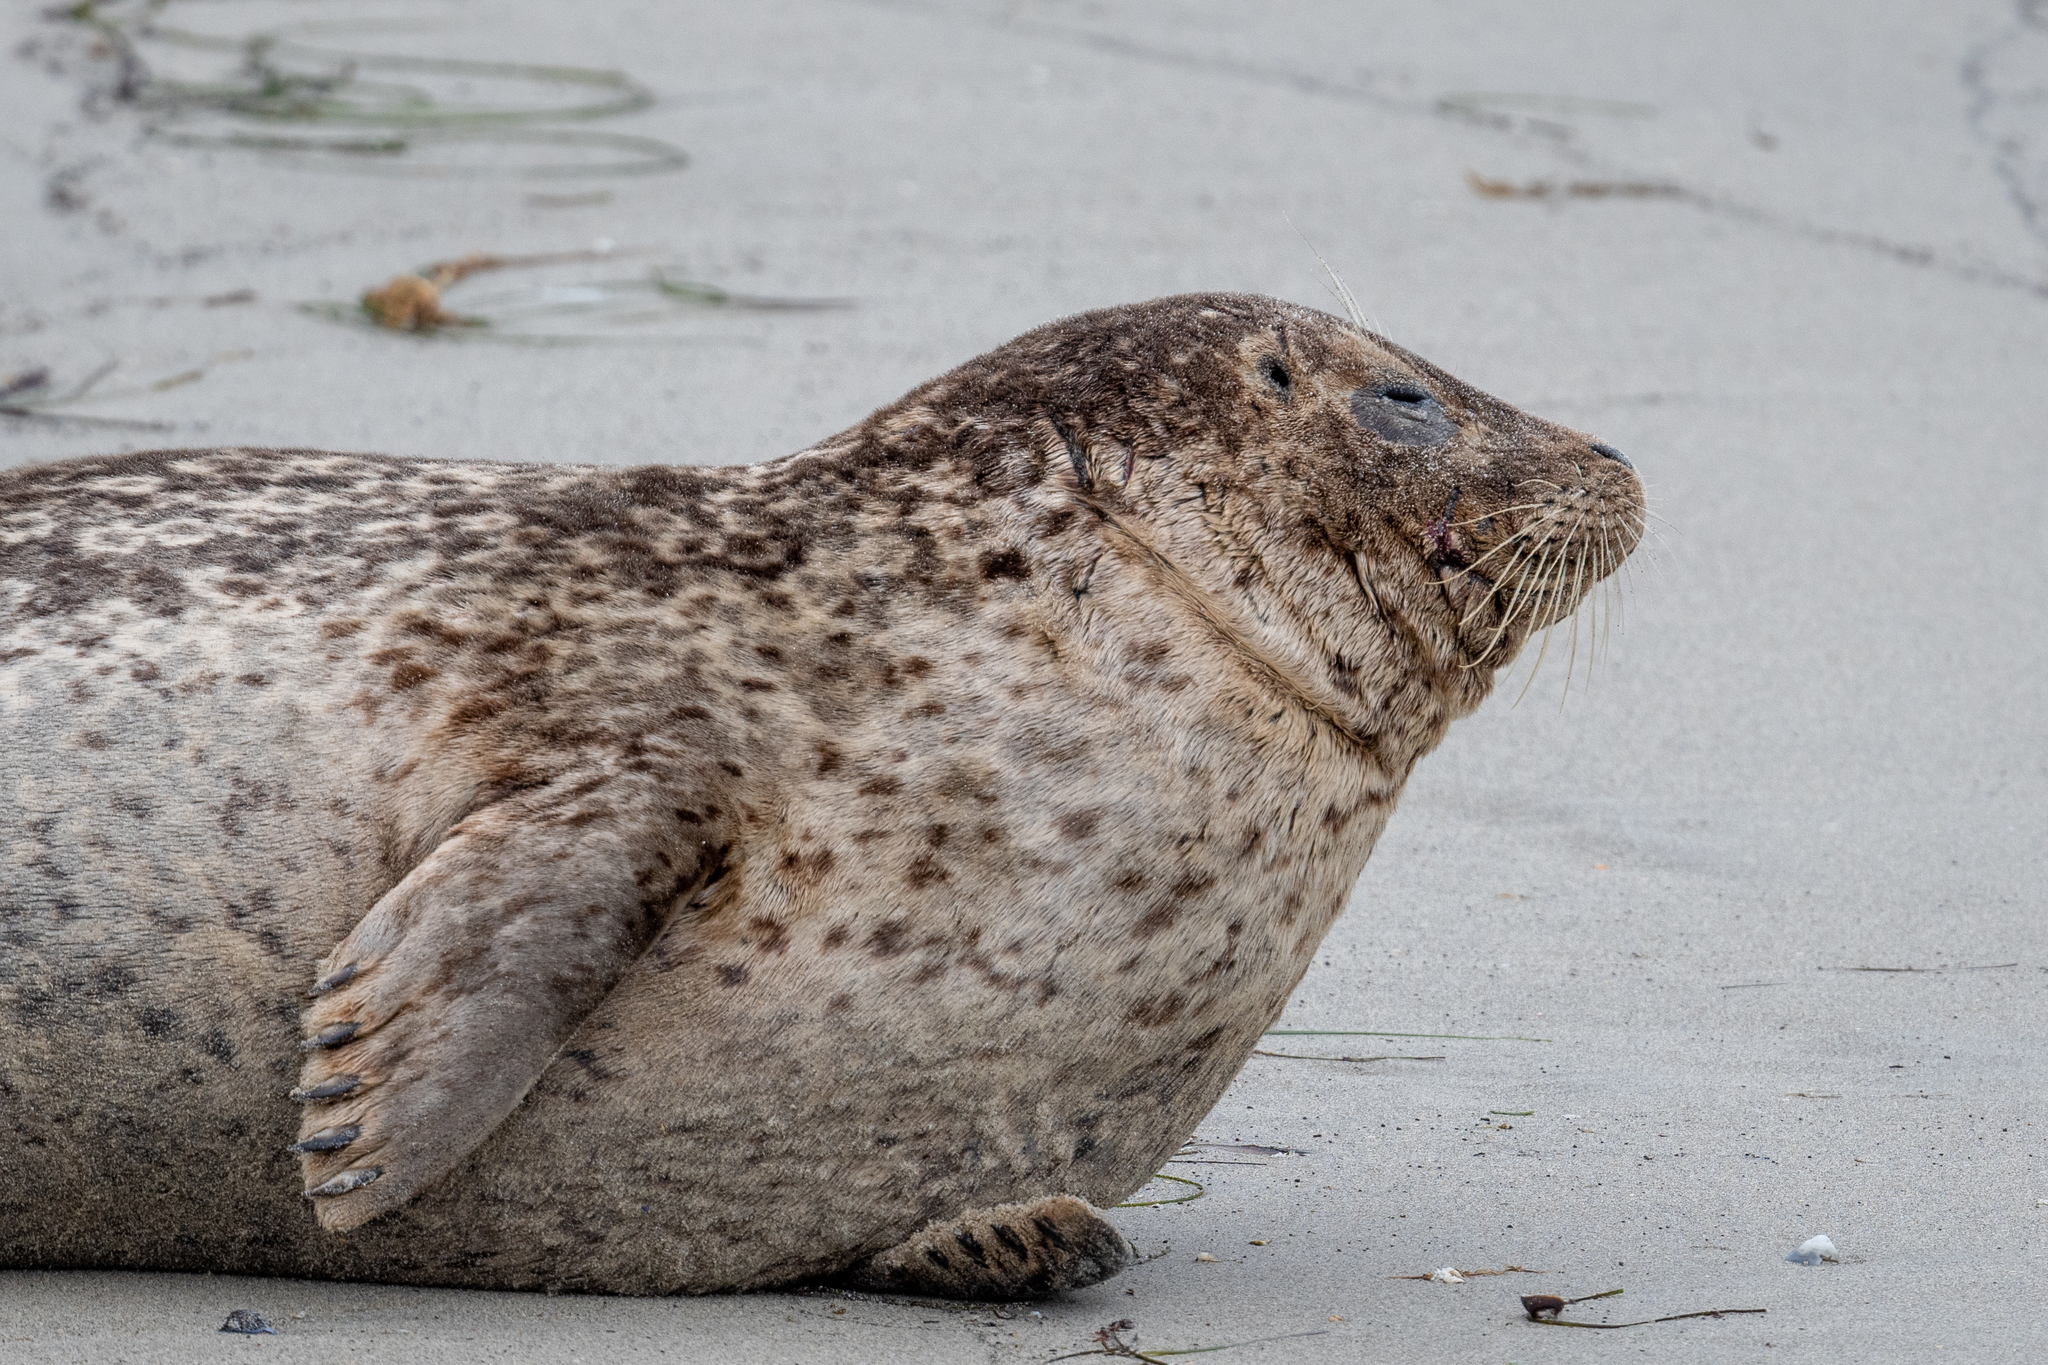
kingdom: Animalia
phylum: Chordata
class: Mammalia
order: Carnivora
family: Phocidae
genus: Phoca
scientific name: Phoca vitulina
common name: Harbor seal
